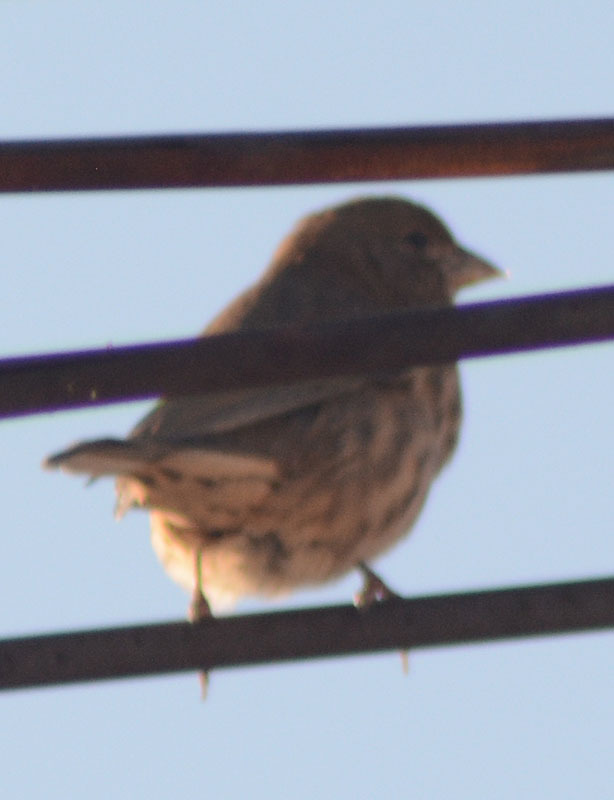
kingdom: Animalia
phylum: Chordata
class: Aves
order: Passeriformes
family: Fringillidae
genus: Haemorhous
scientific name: Haemorhous mexicanus
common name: House finch
